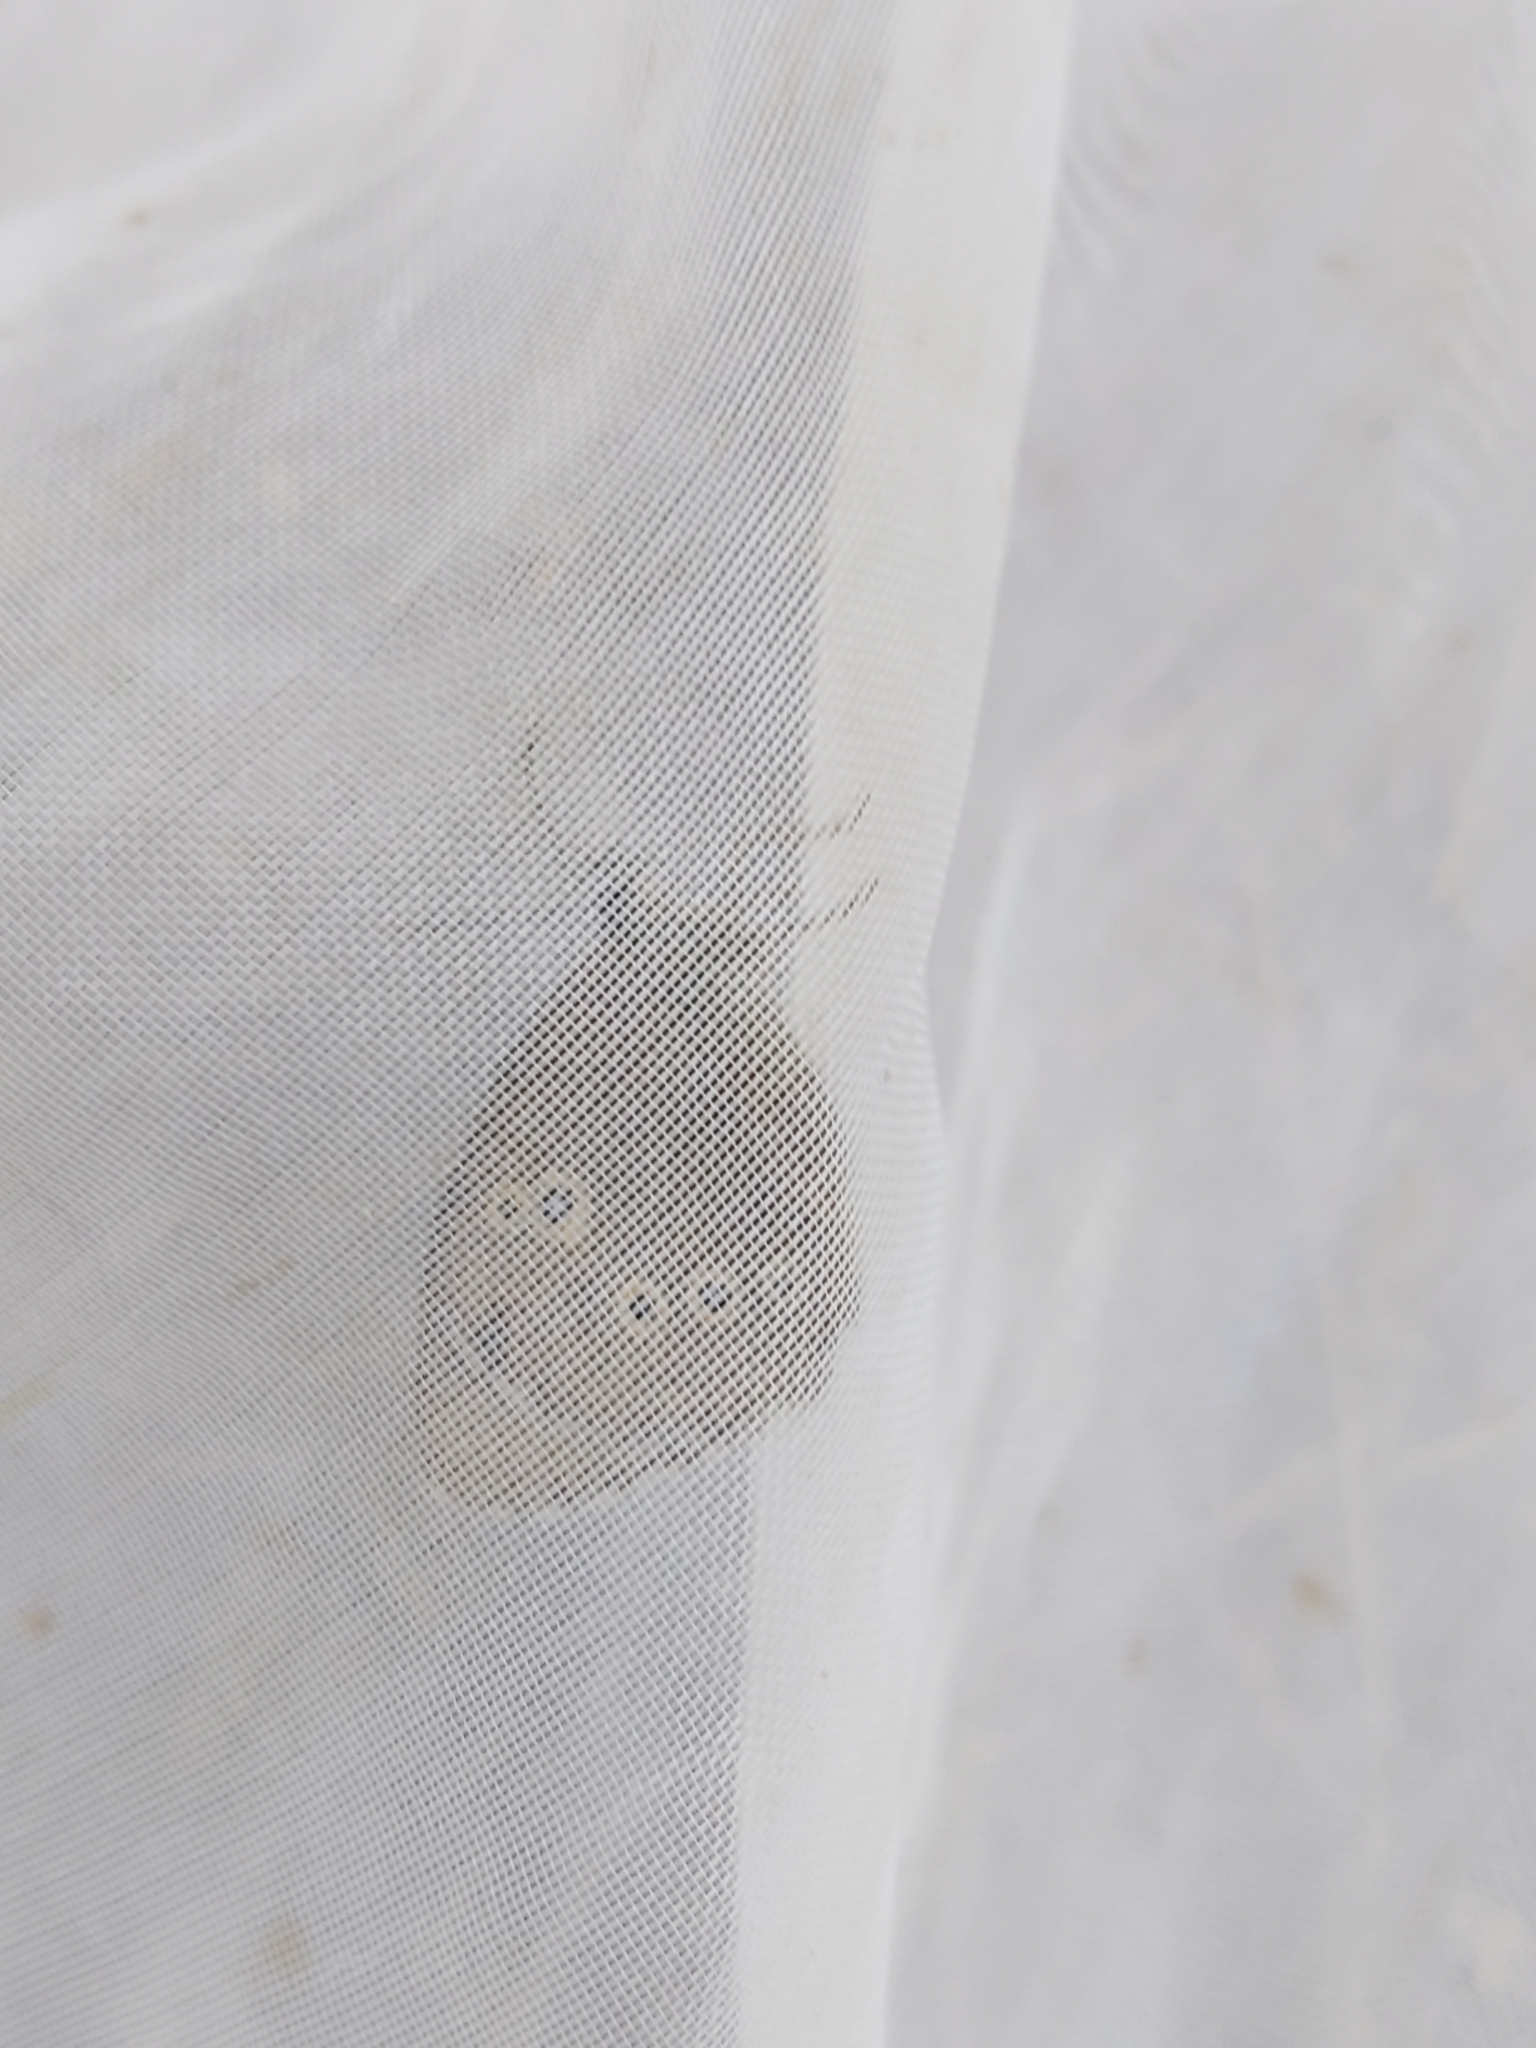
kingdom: Animalia
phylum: Arthropoda
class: Insecta
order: Lepidoptera
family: Nymphalidae
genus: Aphantopus
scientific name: Aphantopus hyperantus
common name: Ringlet
